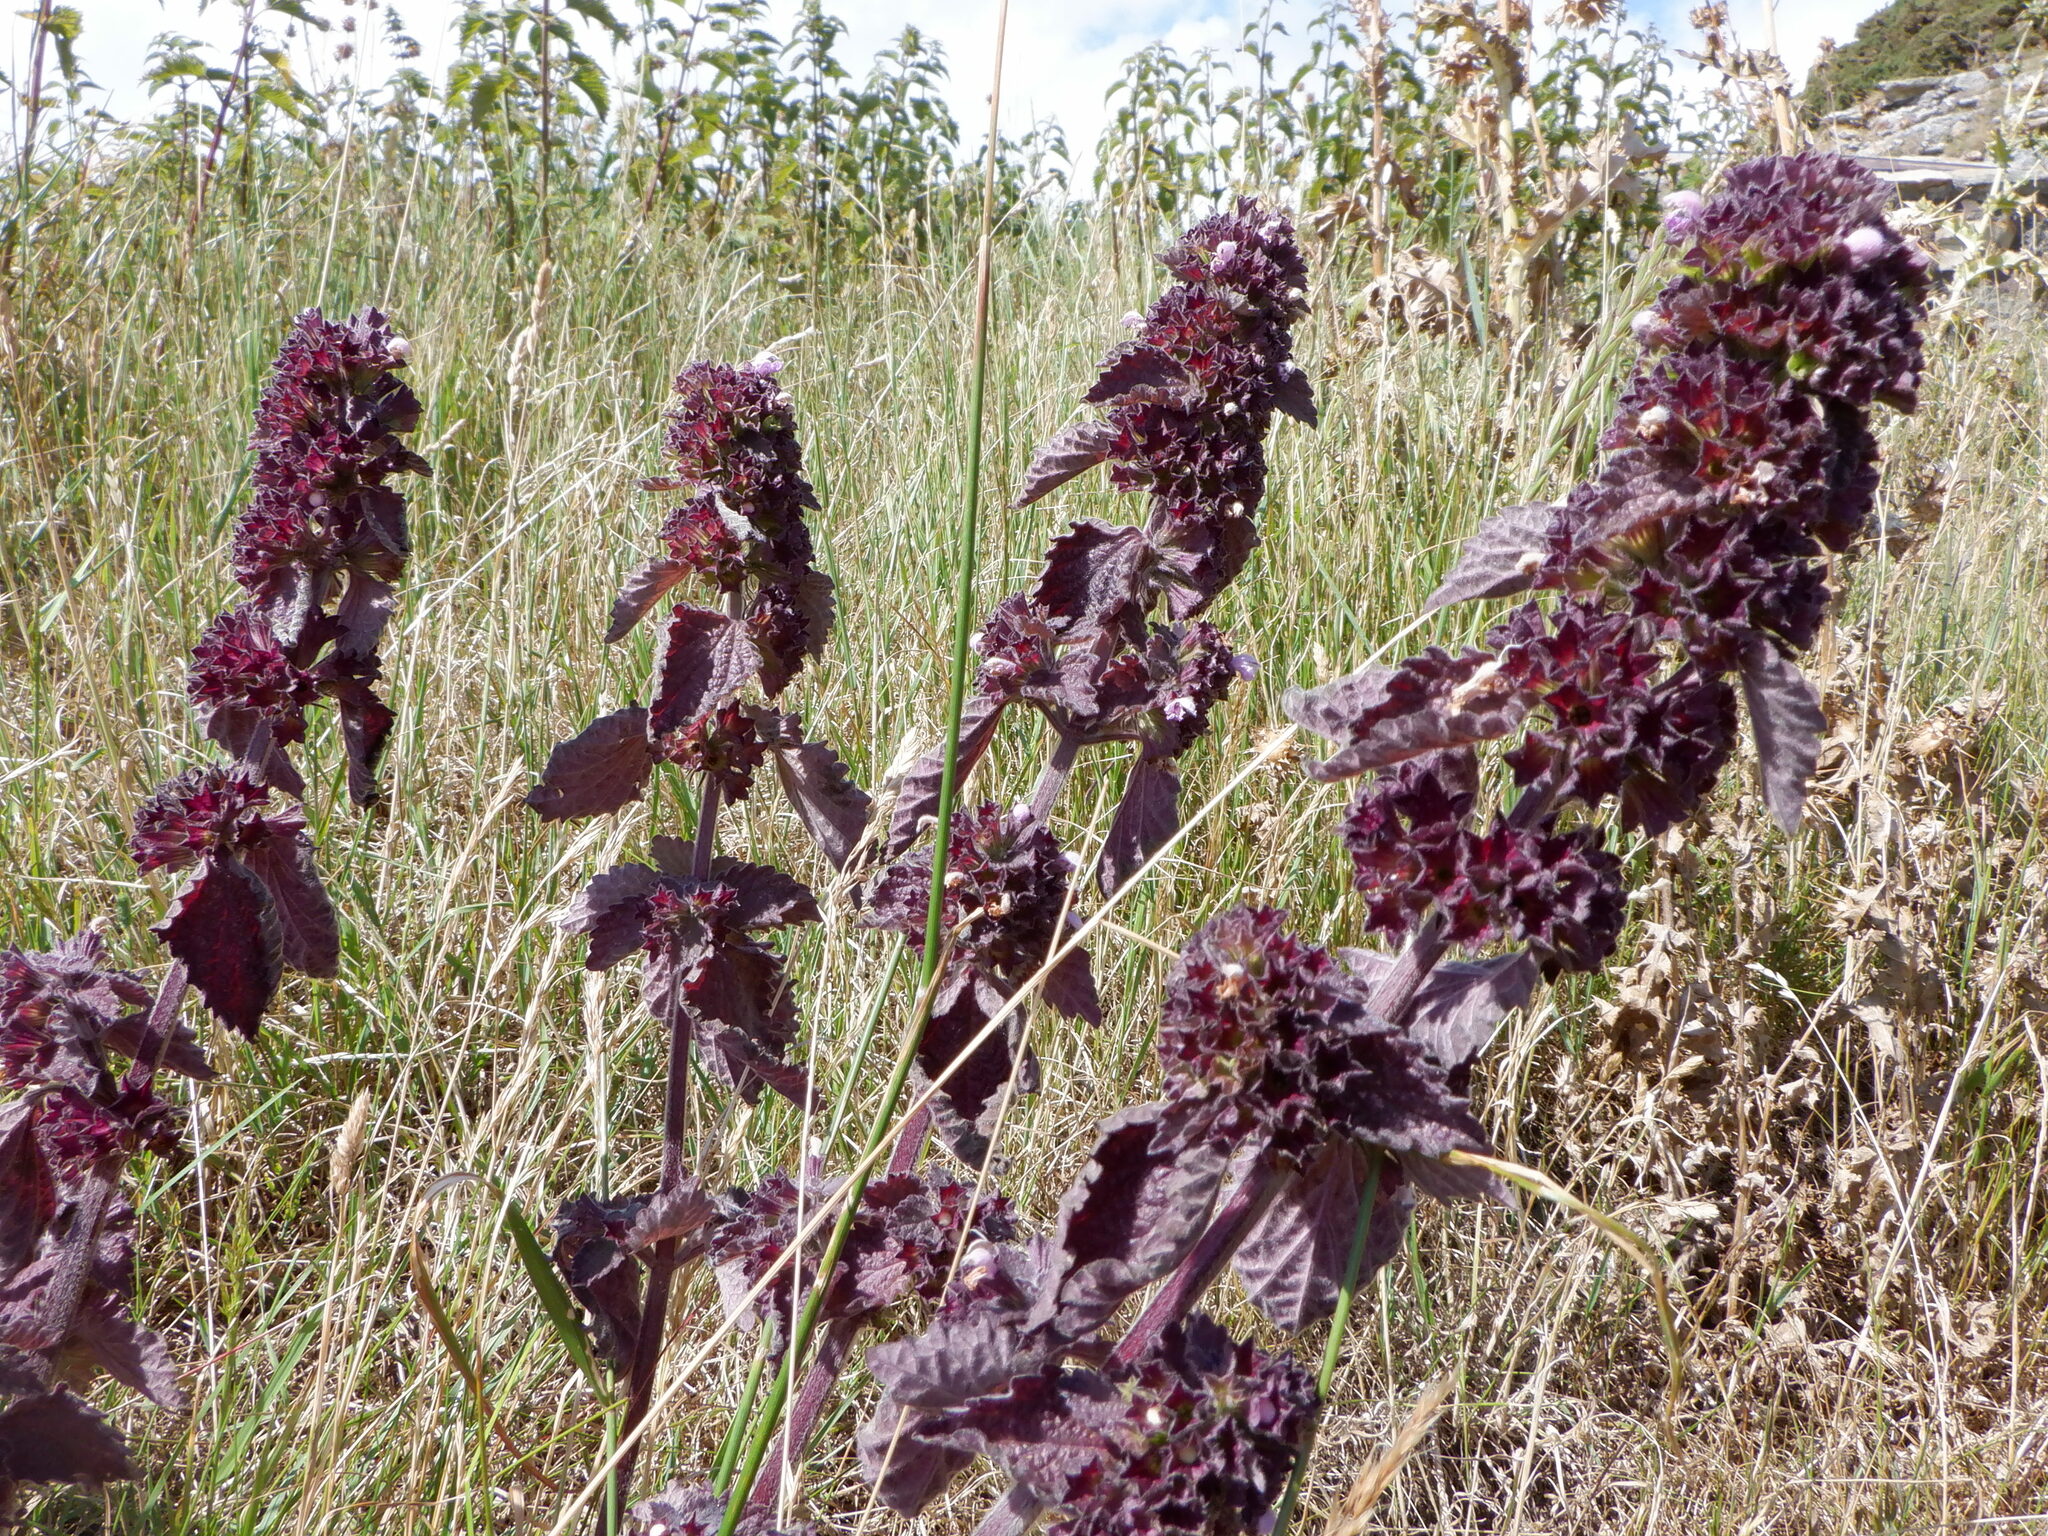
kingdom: Plantae
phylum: Tracheophyta
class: Magnoliopsida
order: Lamiales
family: Lamiaceae
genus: Ballota
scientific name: Ballota nigra
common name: Black horehound
